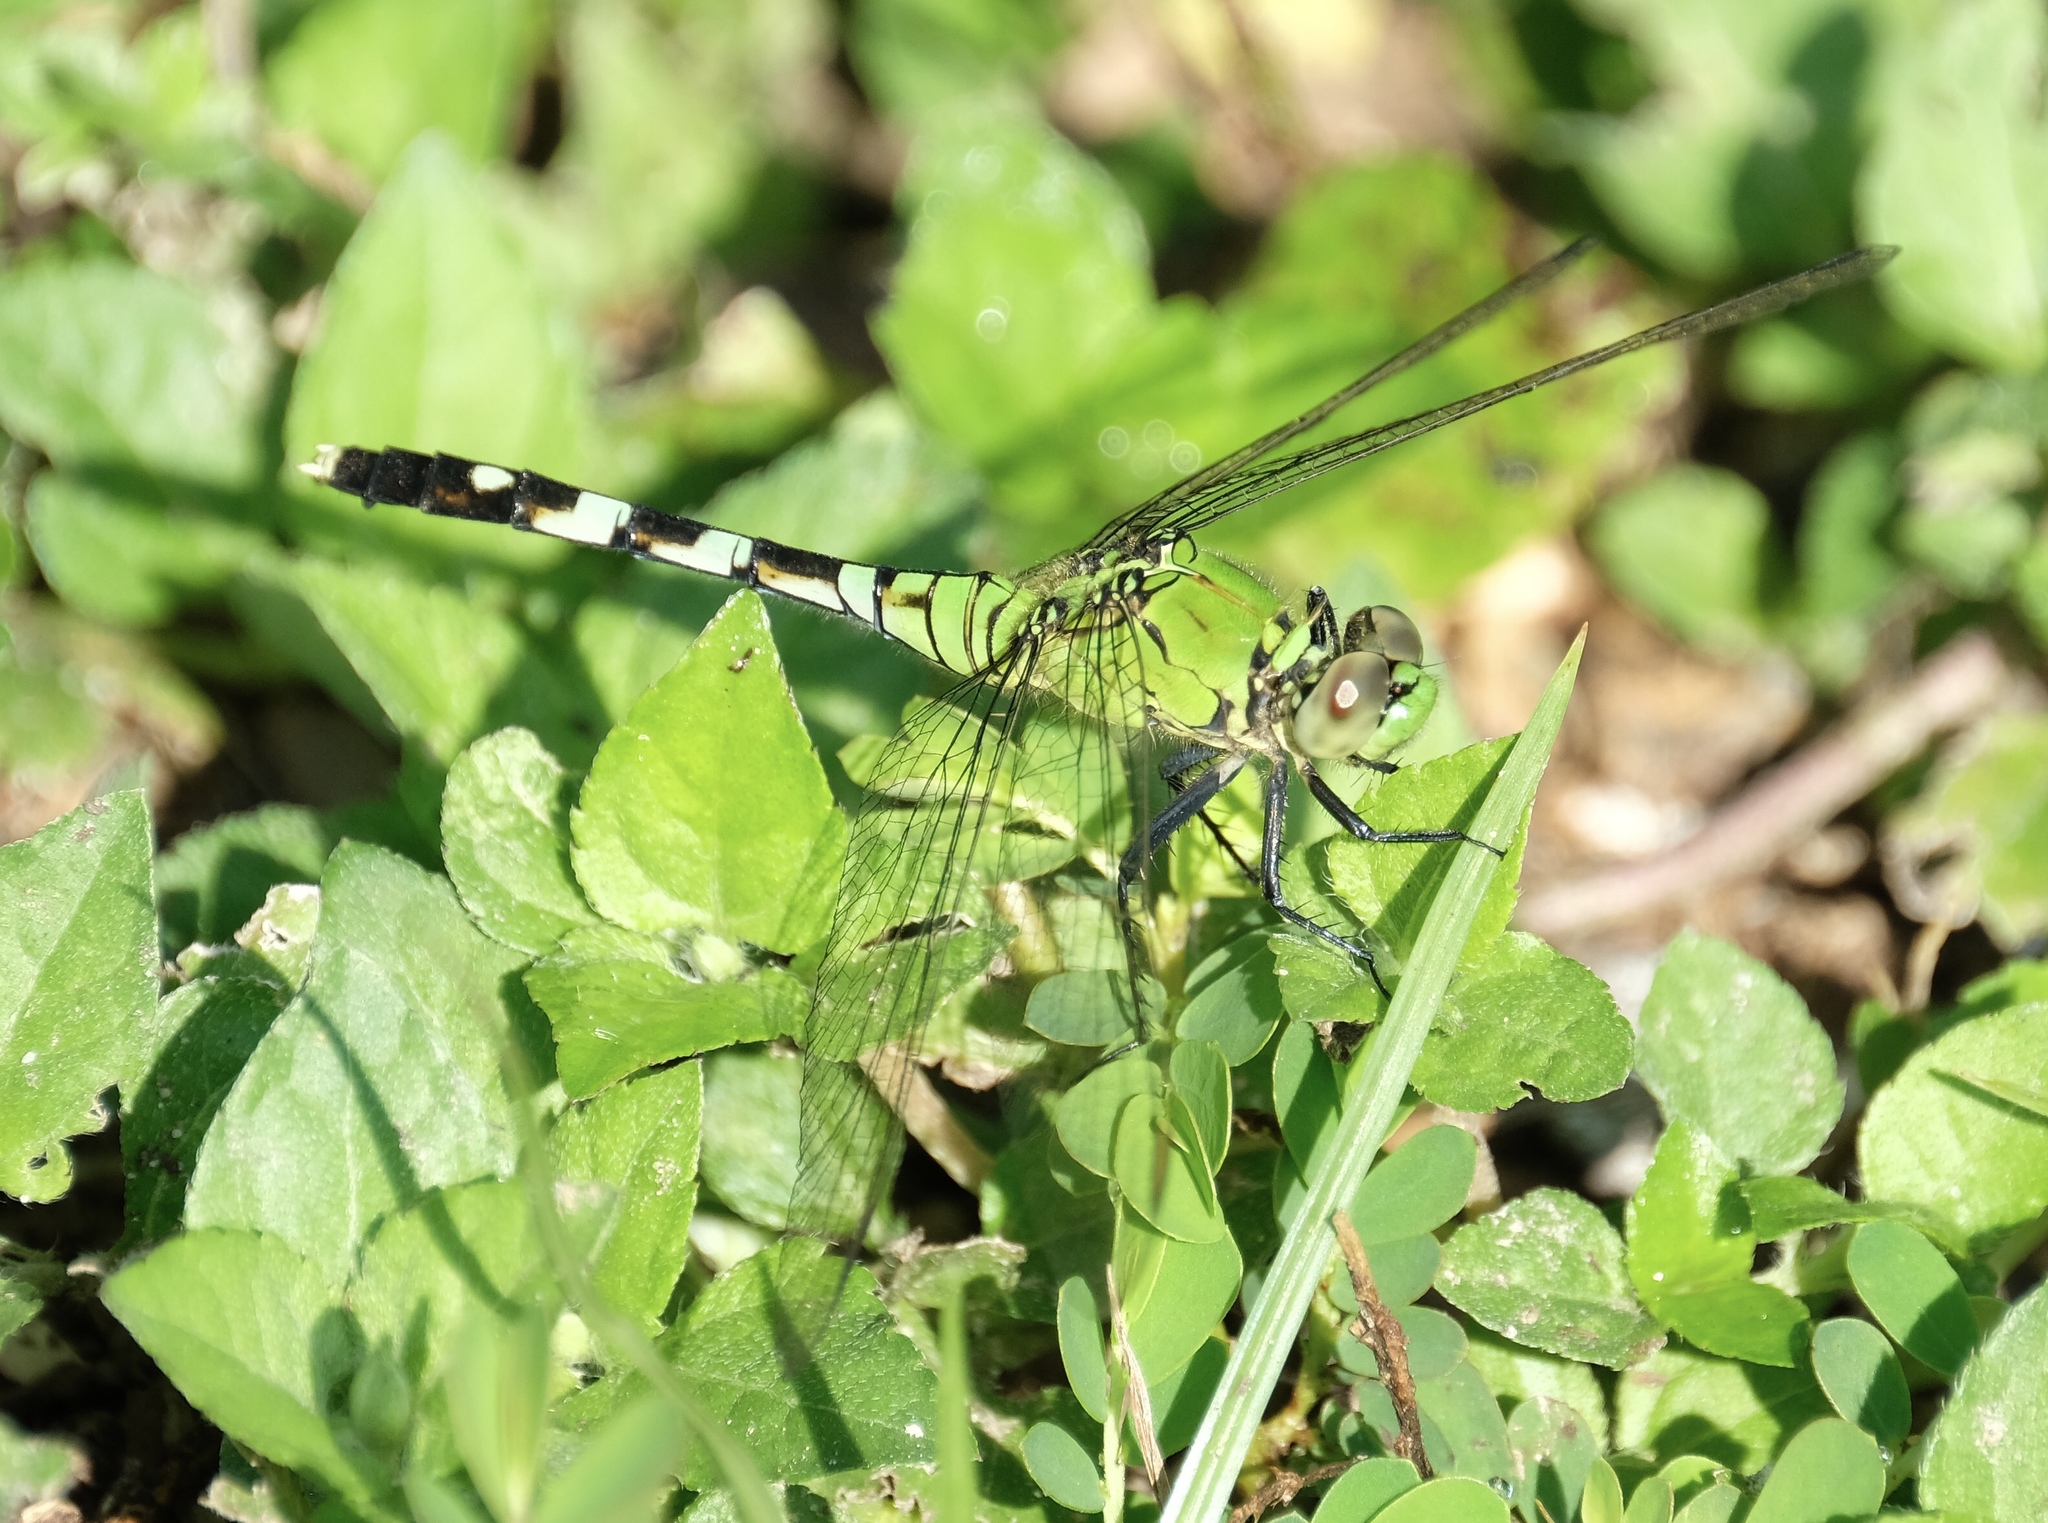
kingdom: Animalia
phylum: Arthropoda
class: Insecta
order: Odonata
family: Libellulidae
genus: Erythemis
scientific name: Erythemis simplicicollis
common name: Eastern pondhawk
